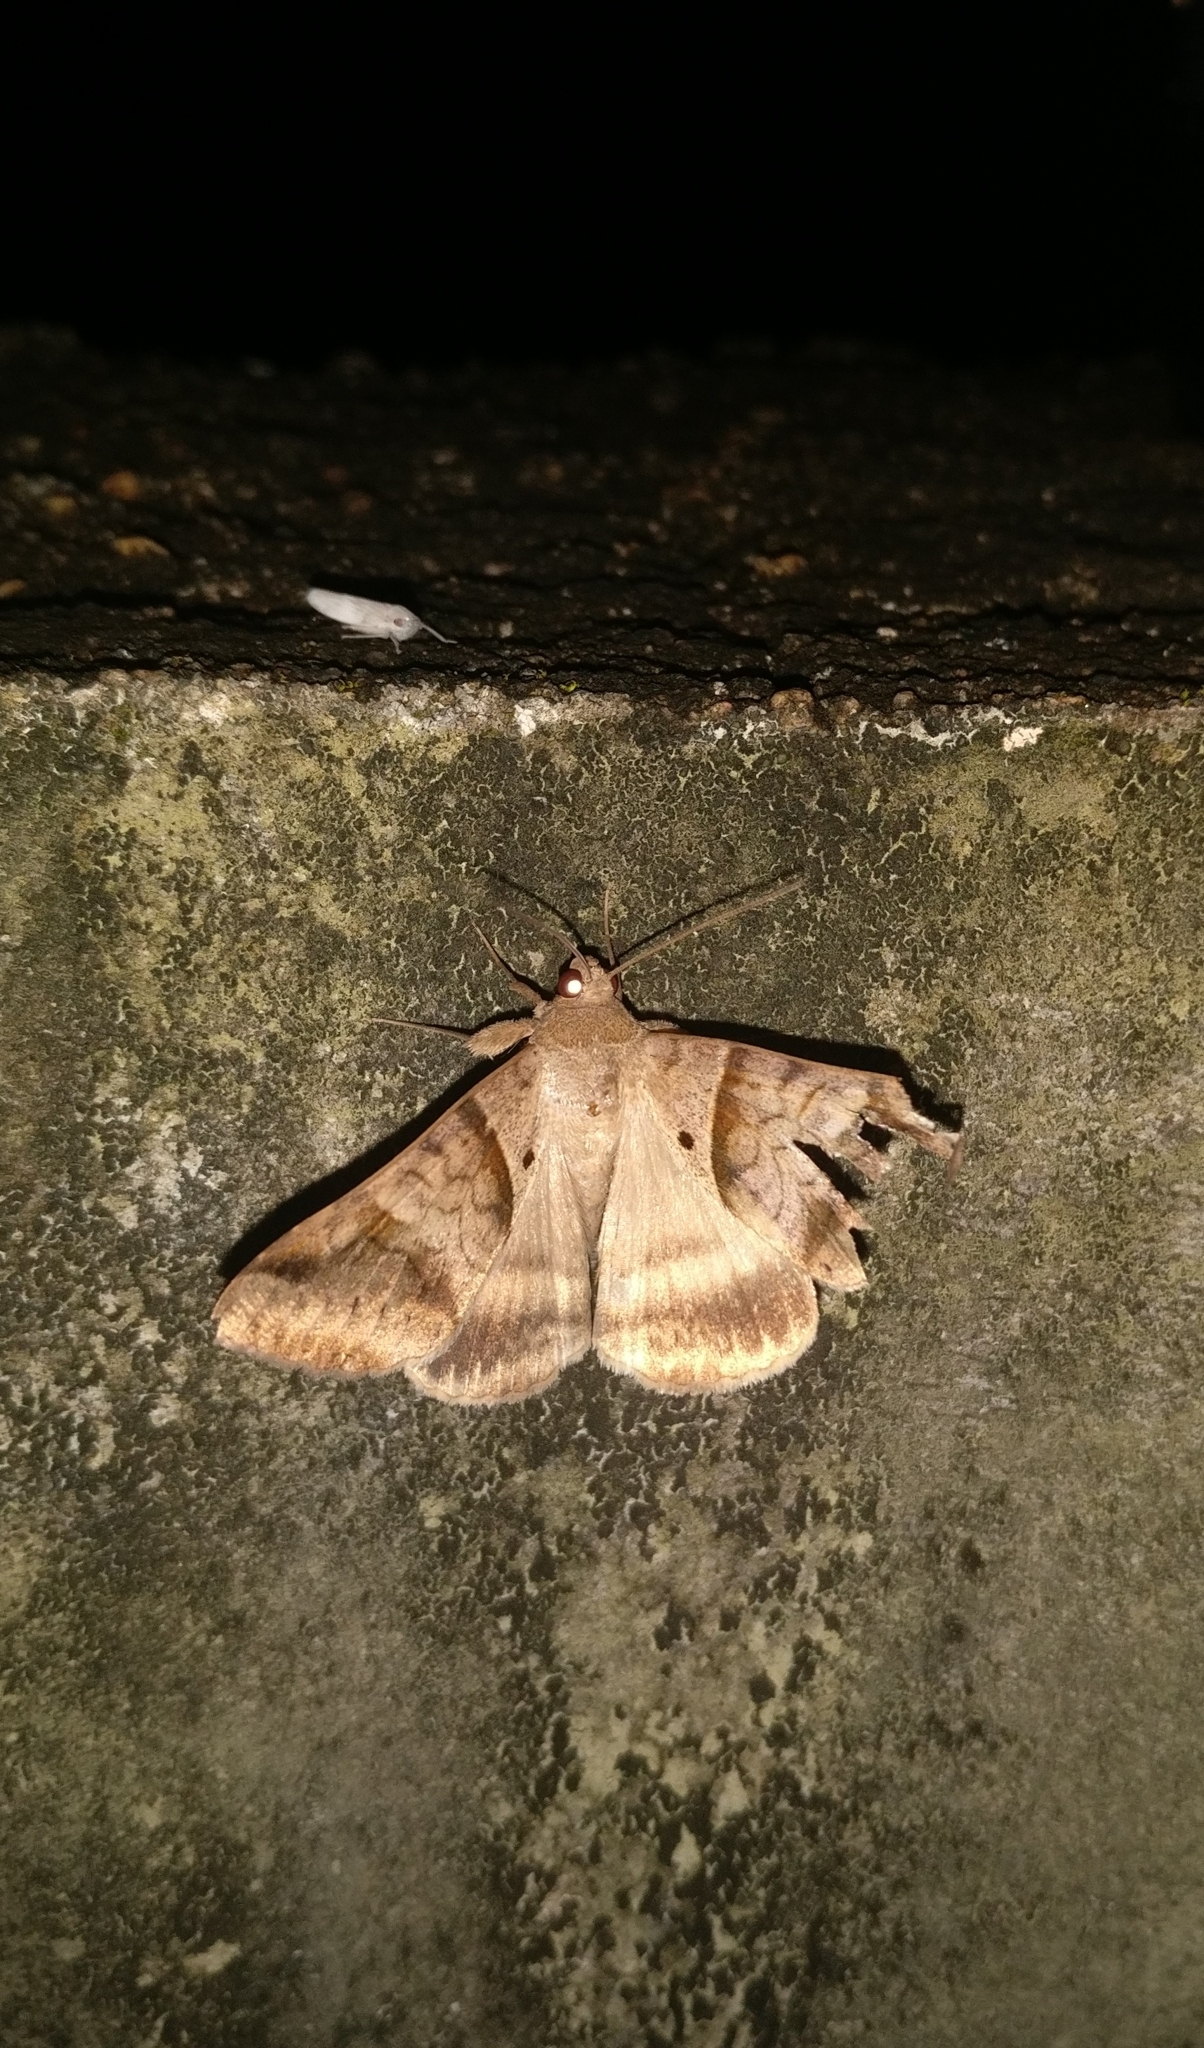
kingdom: Animalia
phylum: Arthropoda
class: Insecta
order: Lepidoptera
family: Erebidae
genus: Mocis
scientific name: Mocis undata
